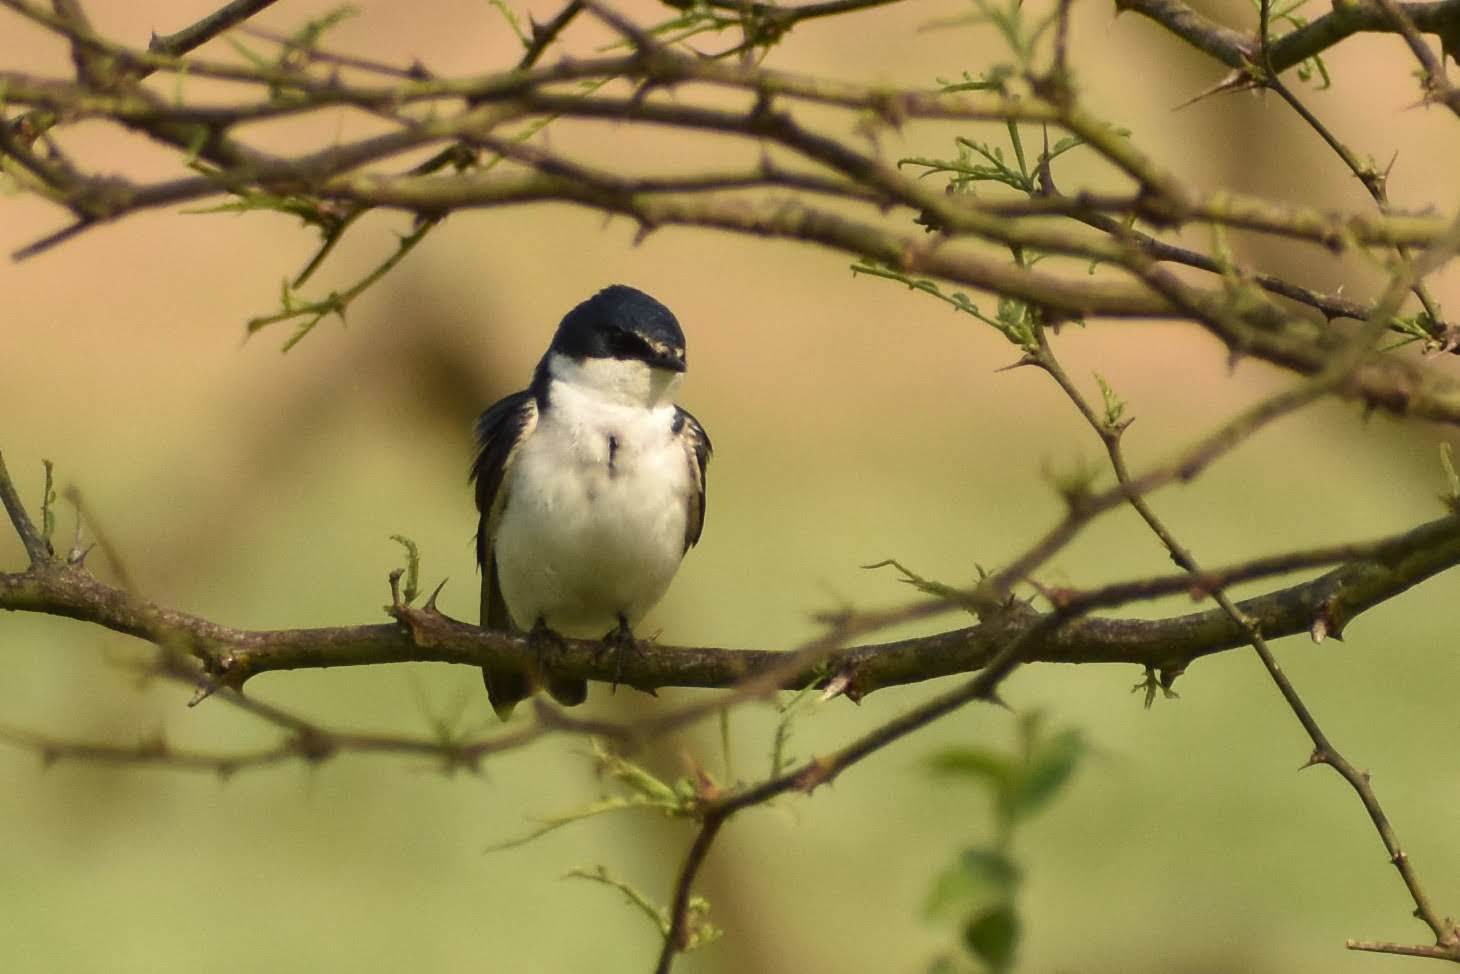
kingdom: Animalia
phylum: Chordata
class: Aves
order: Passeriformes
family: Hirundinidae
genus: Tachycineta
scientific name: Tachycineta leucorrhoa
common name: White-rumped swallow
